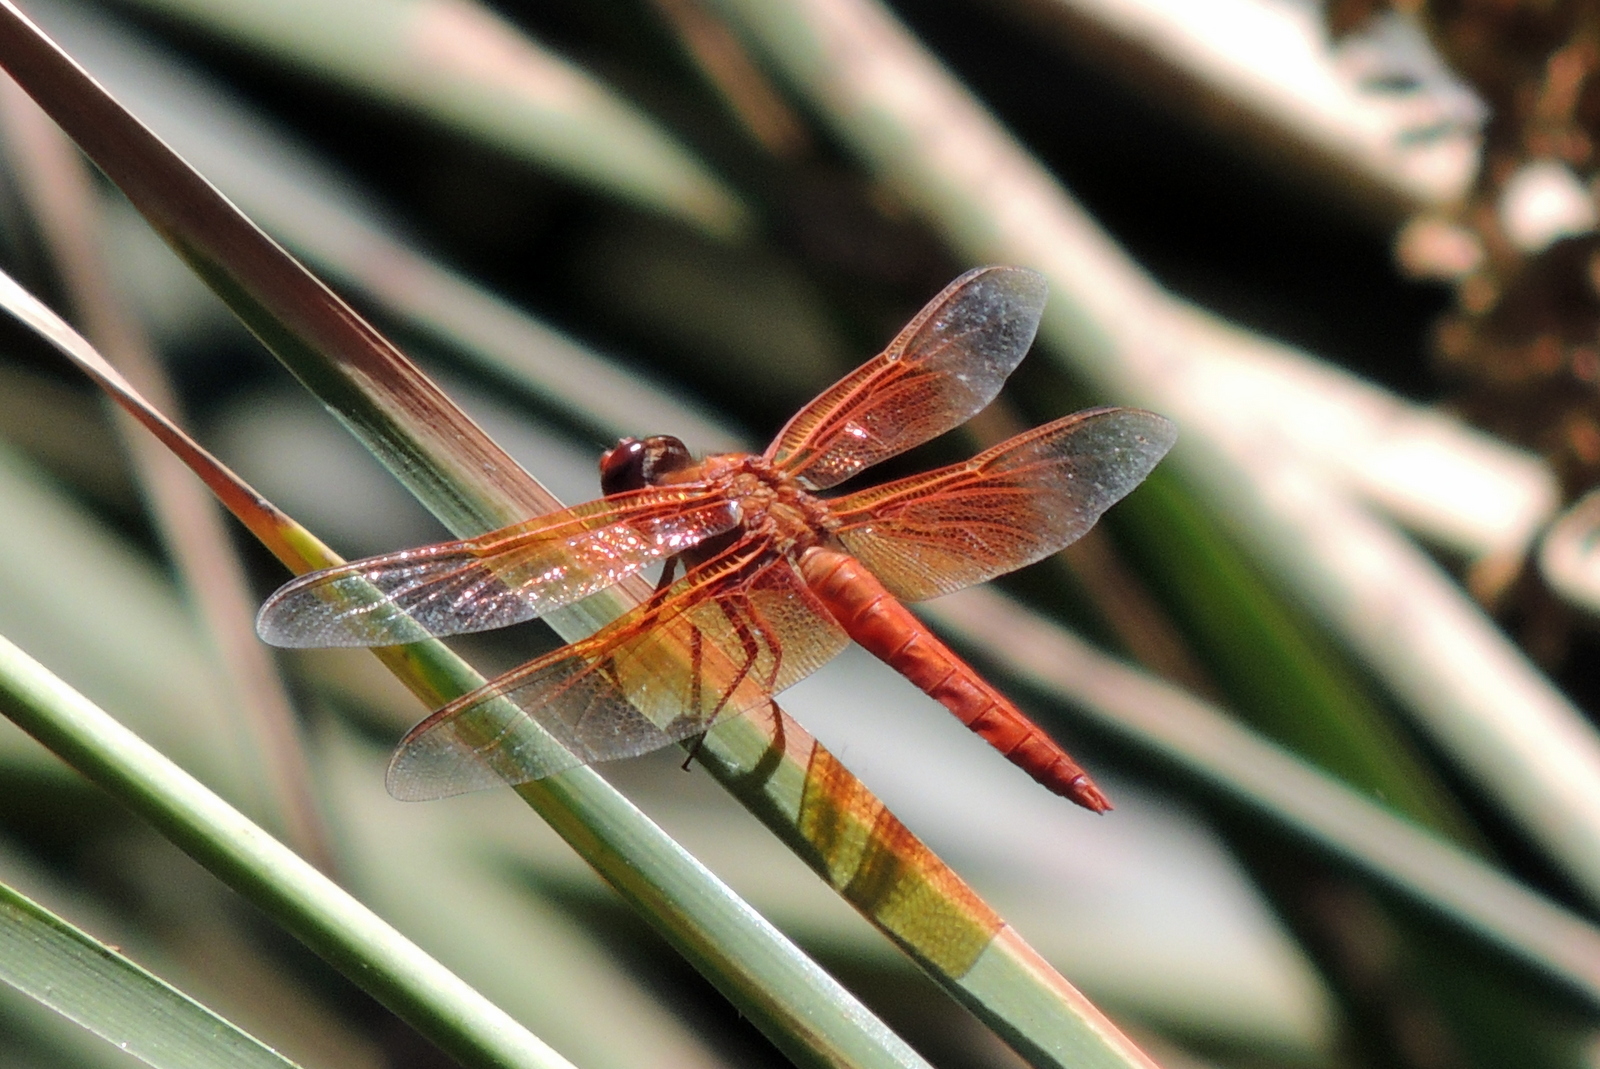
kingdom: Animalia
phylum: Arthropoda
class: Insecta
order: Odonata
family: Libellulidae
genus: Libellula
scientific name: Libellula saturata
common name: Flame skimmer
